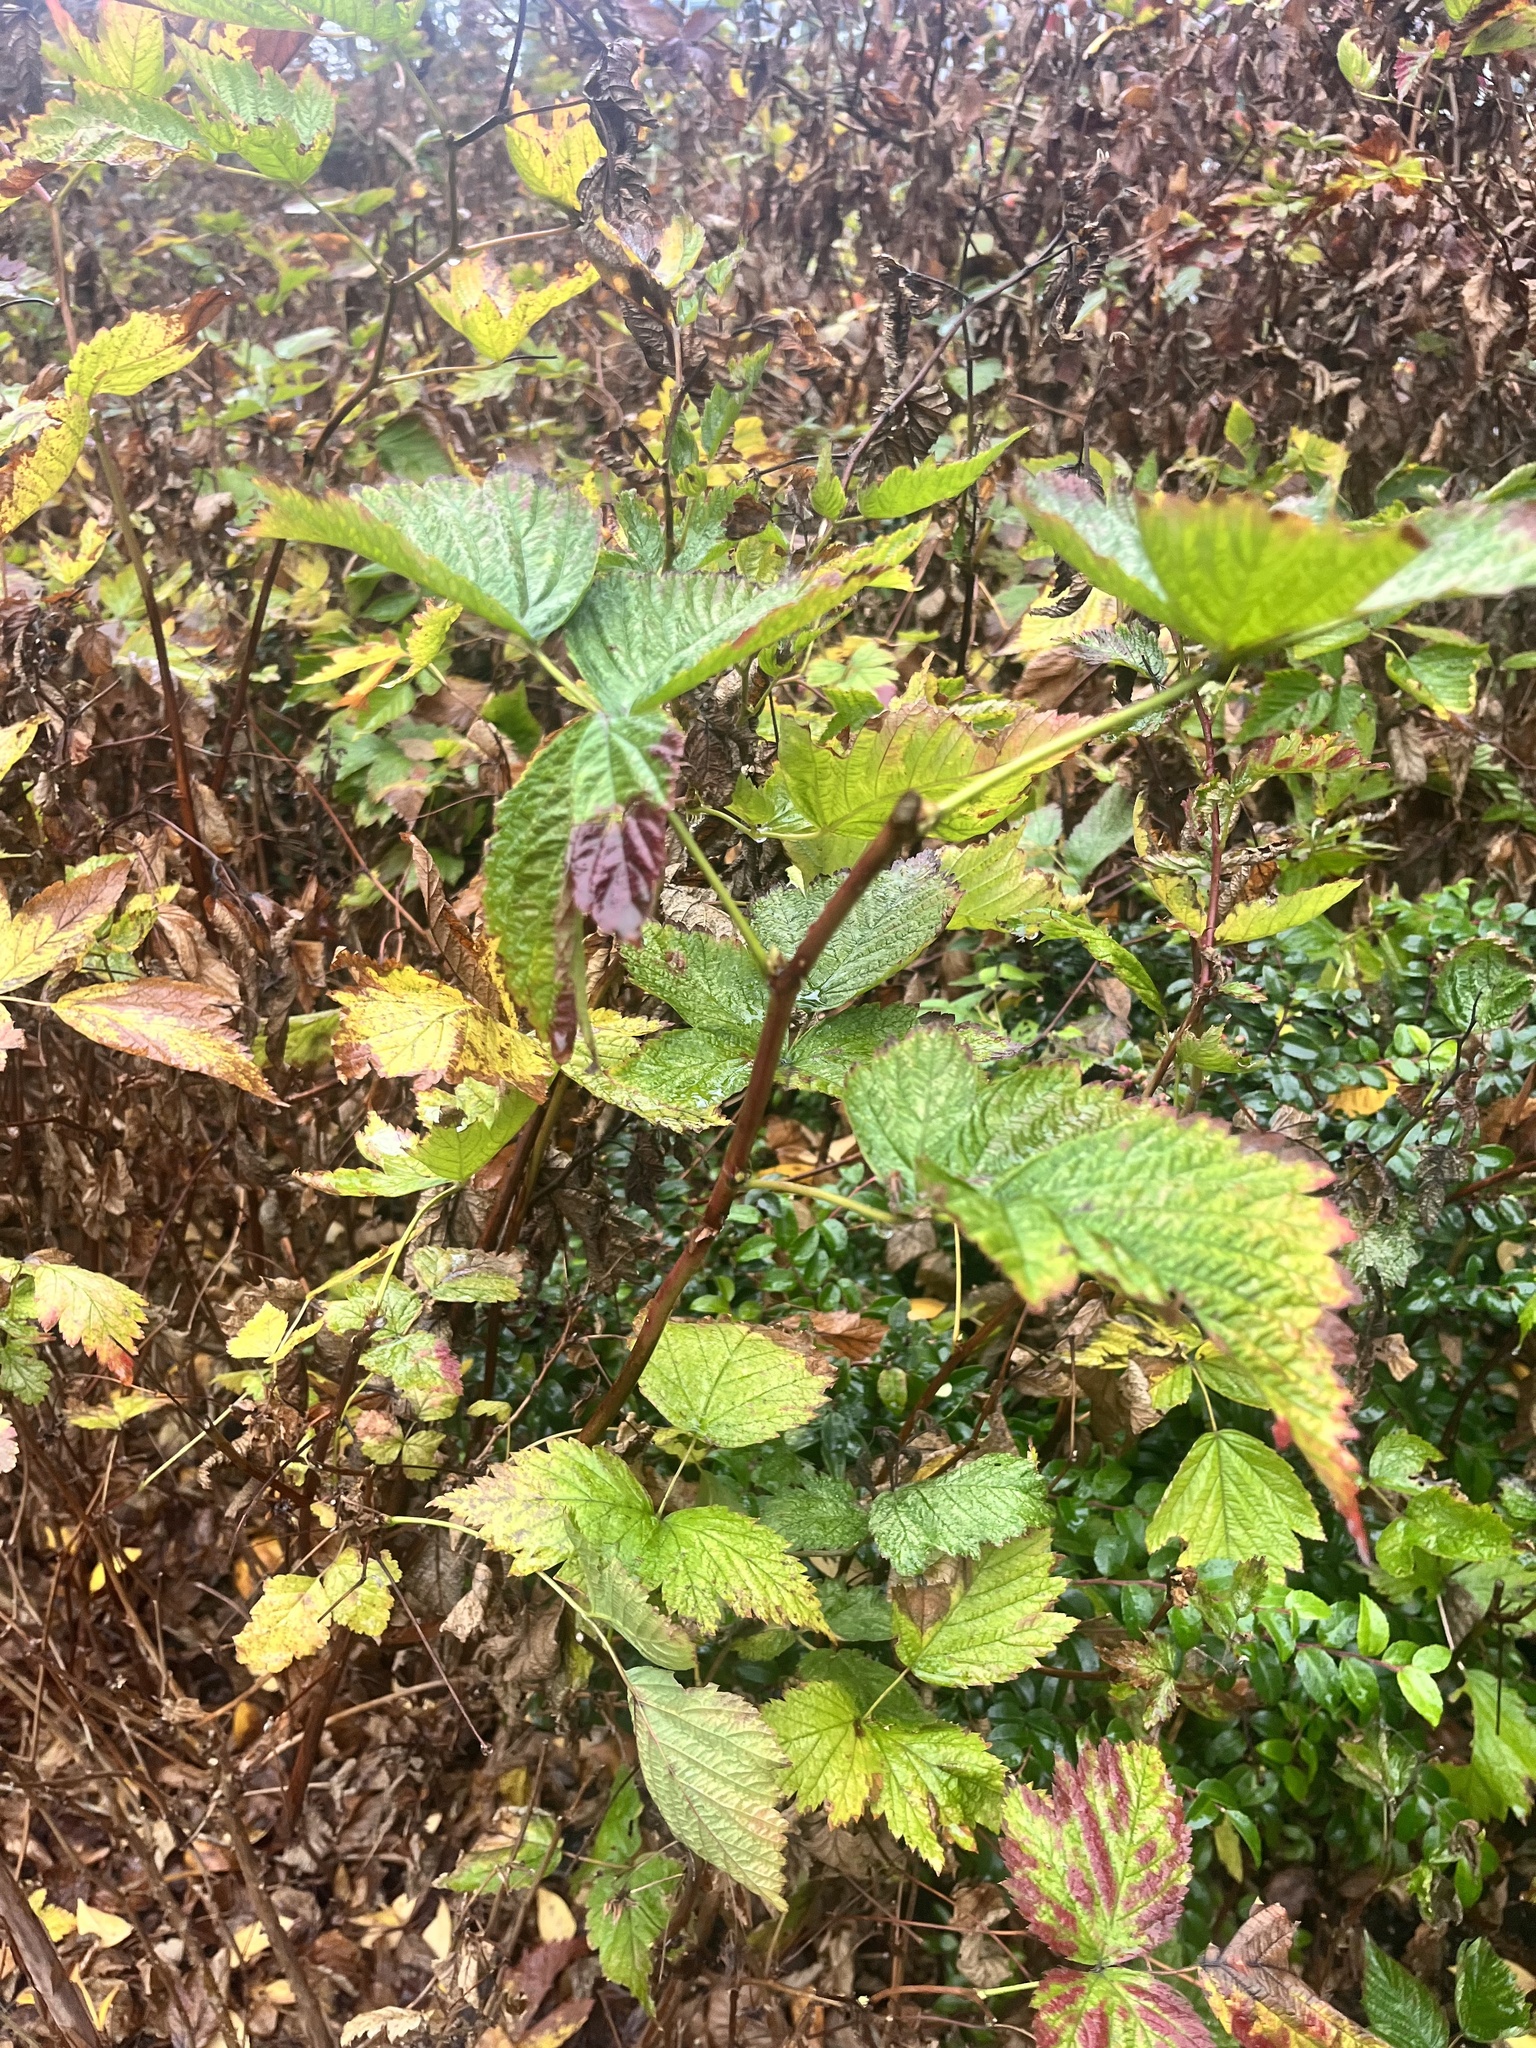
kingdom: Plantae
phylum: Tracheophyta
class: Magnoliopsida
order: Rosales
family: Rosaceae
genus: Rubus
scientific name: Rubus spectabilis
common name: Salmonberry
